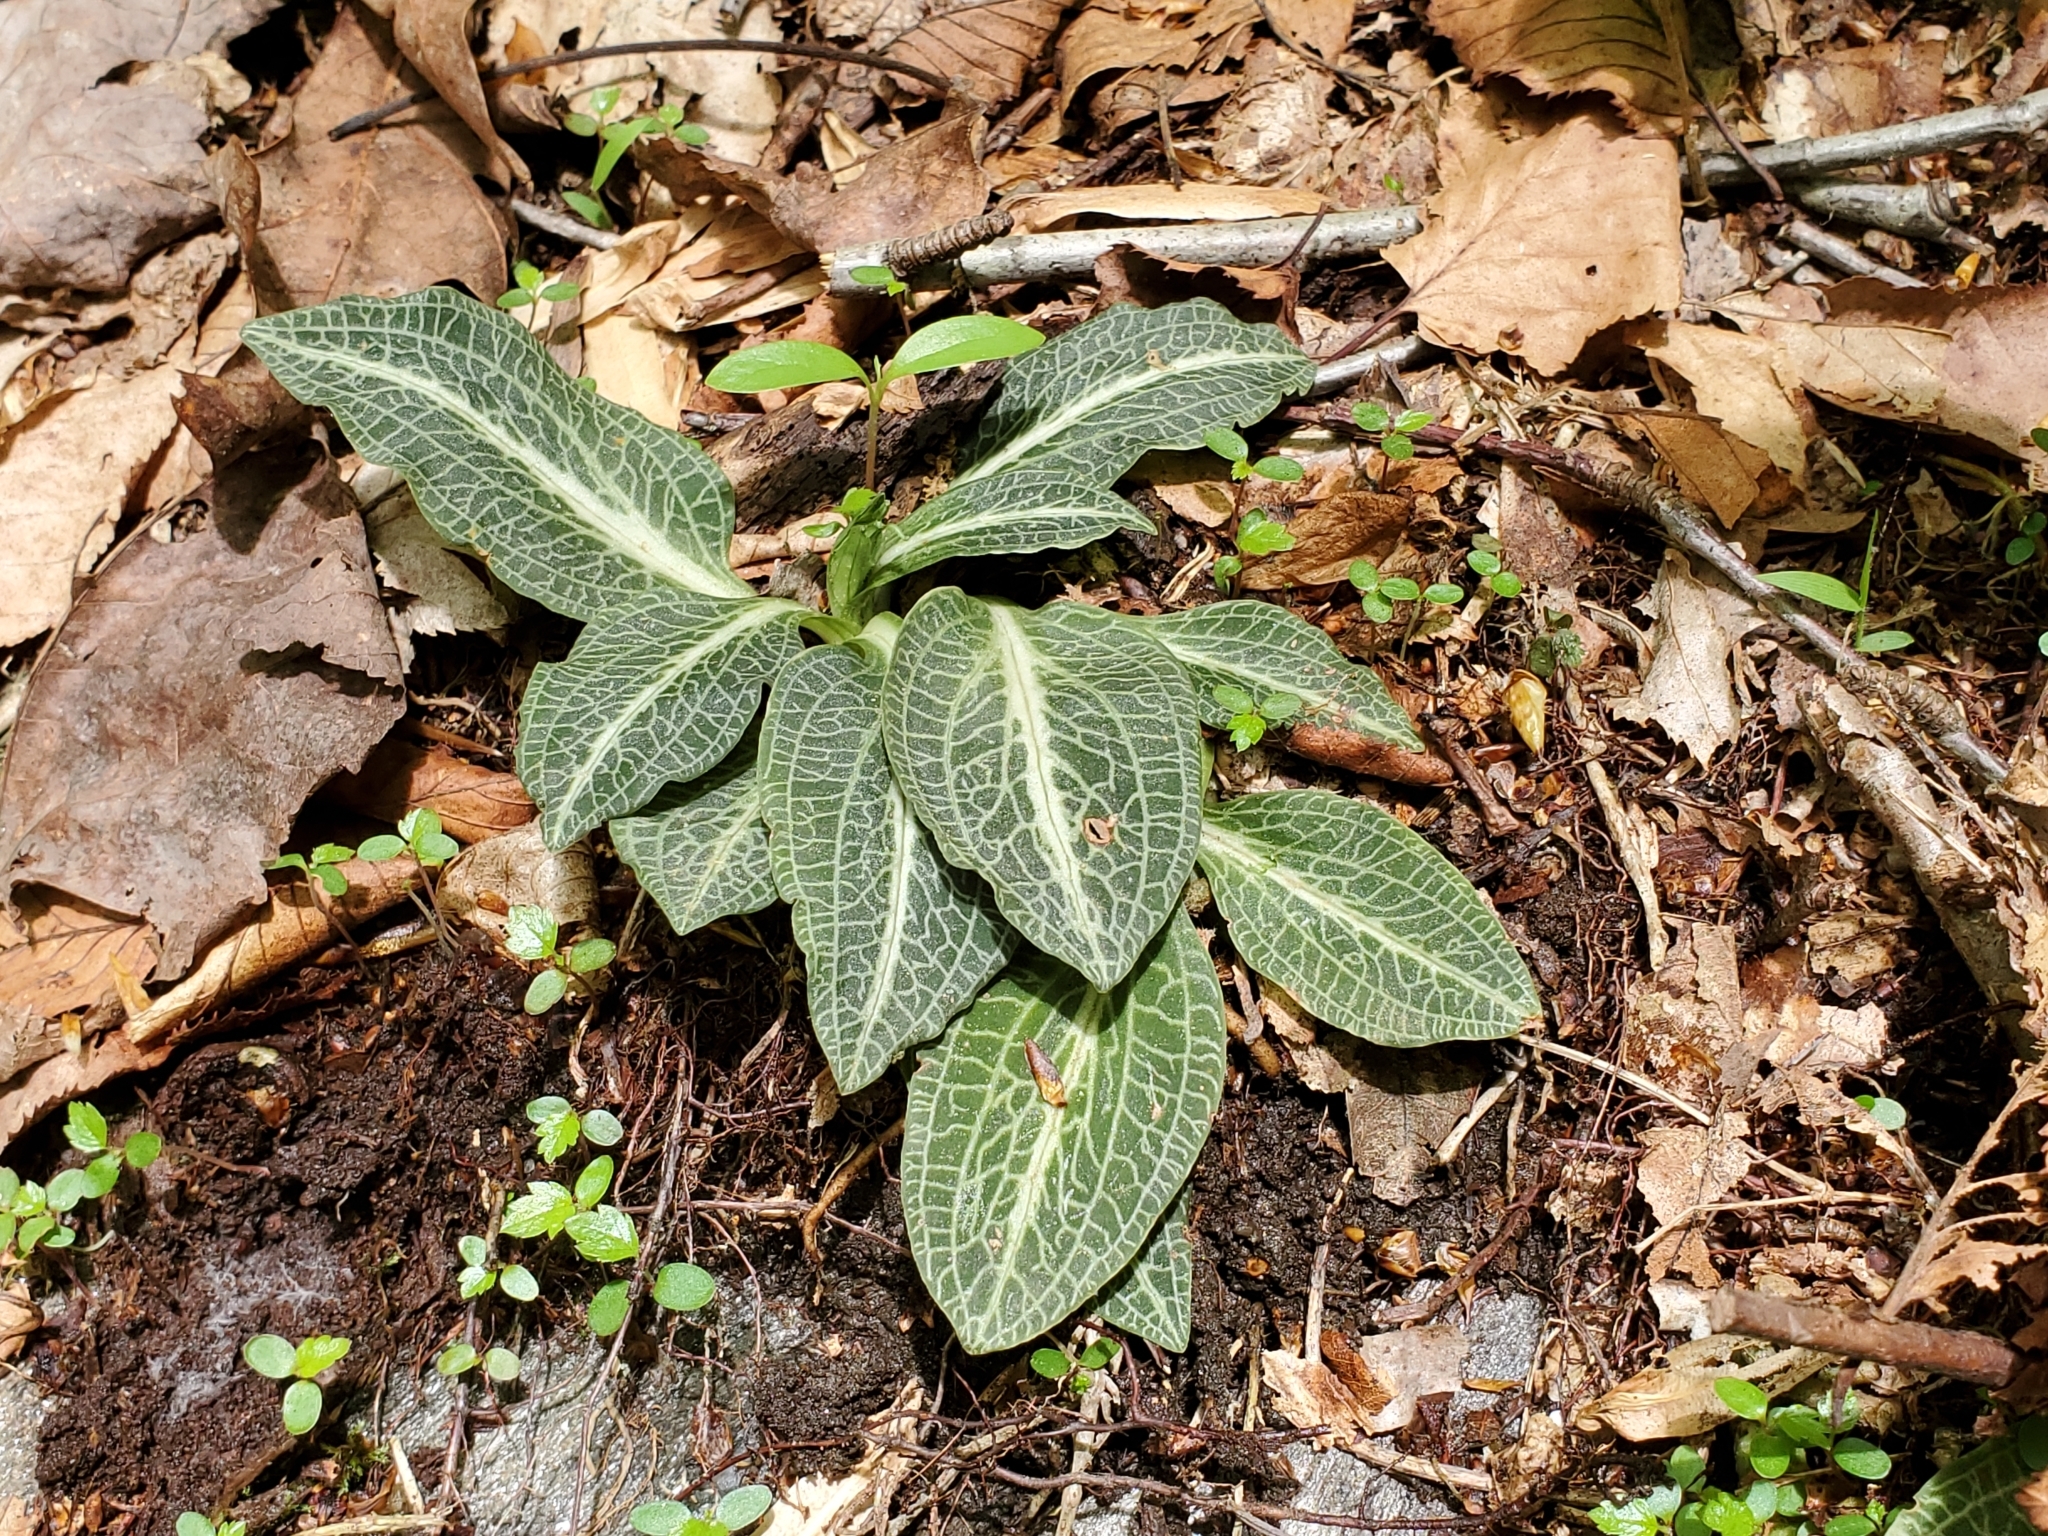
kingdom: Plantae
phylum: Tracheophyta
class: Liliopsida
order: Asparagales
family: Orchidaceae
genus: Goodyera
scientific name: Goodyera pubescens
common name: Downy rattlesnake-plantain
